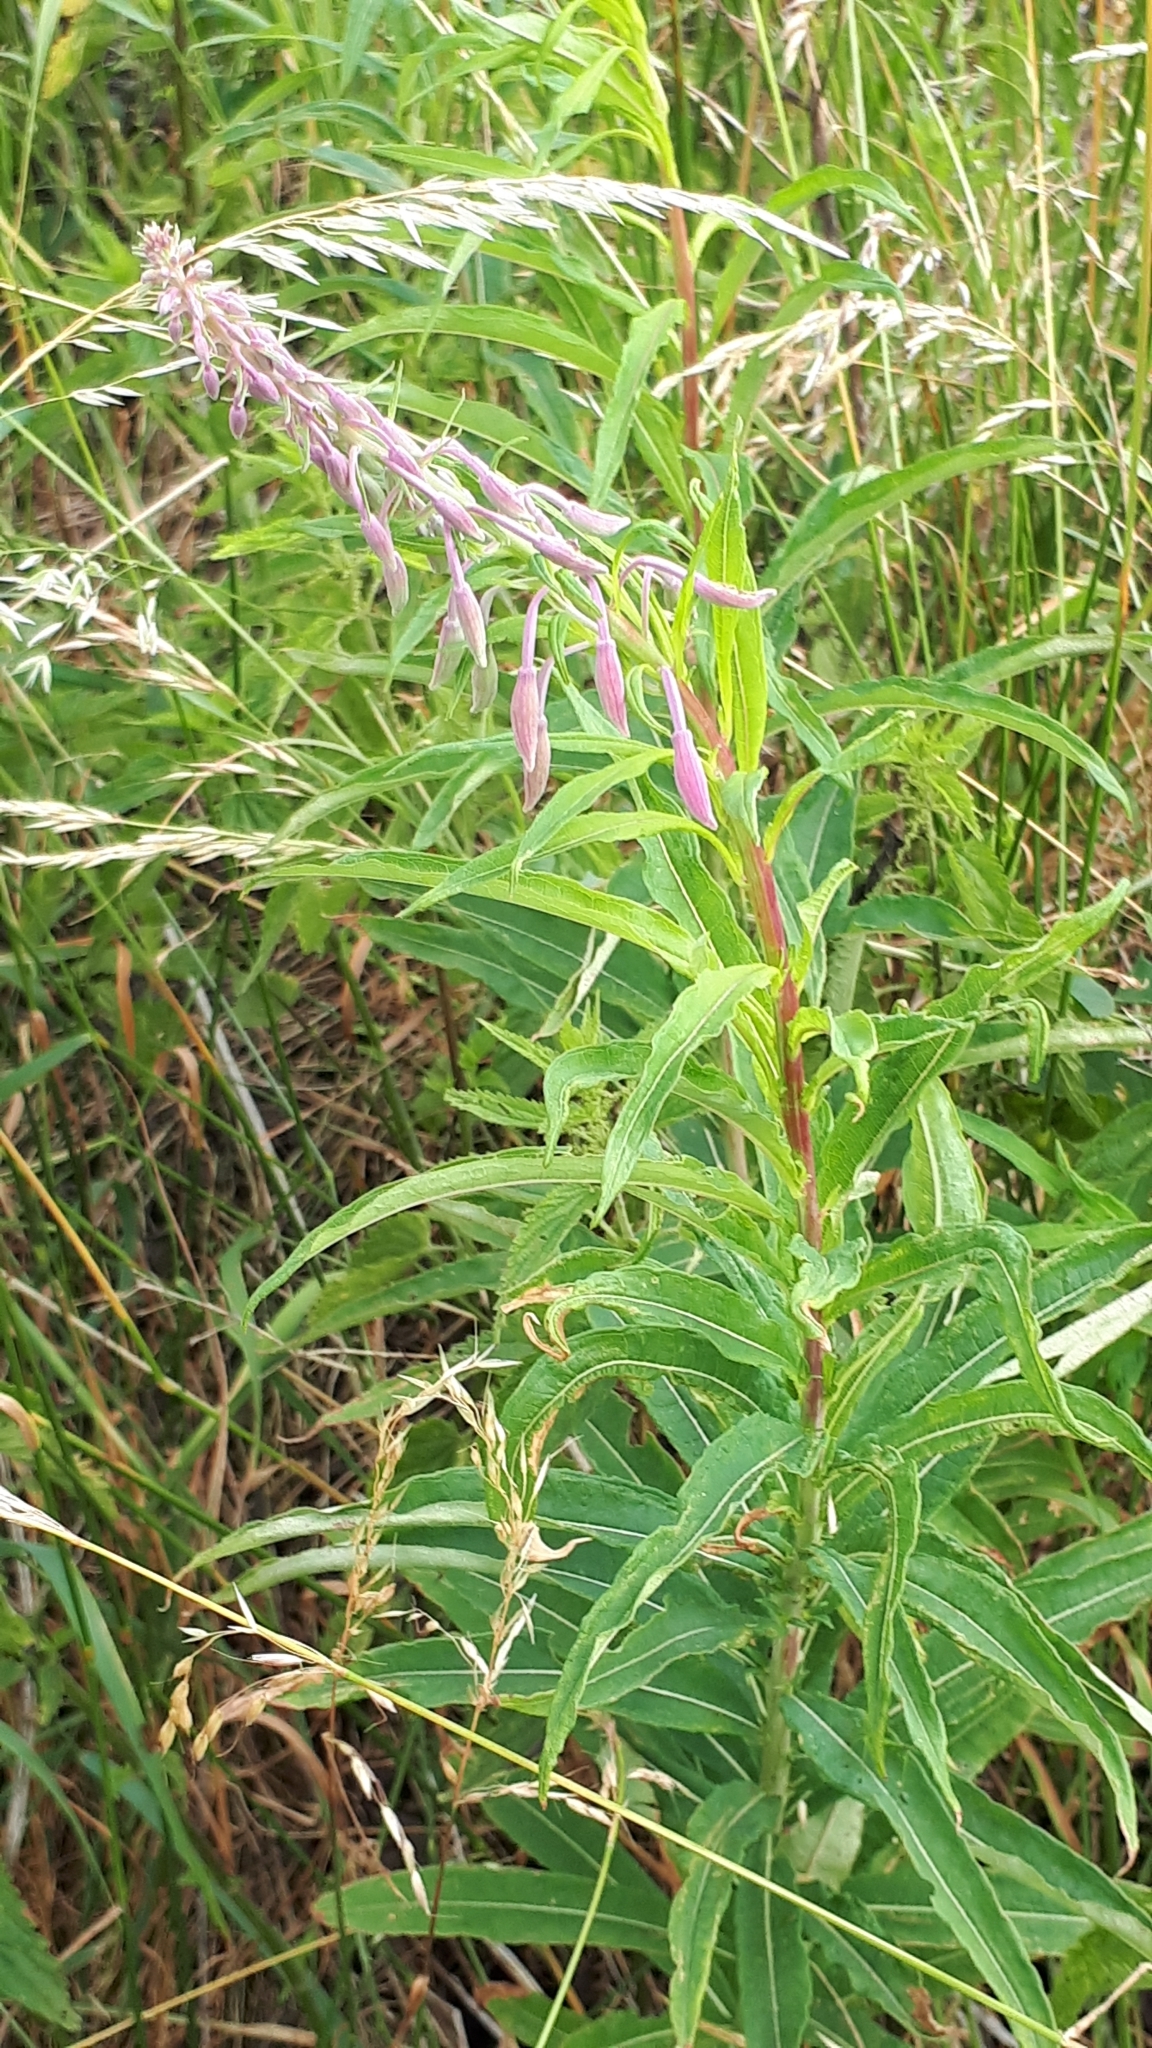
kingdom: Plantae
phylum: Tracheophyta
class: Magnoliopsida
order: Myrtales
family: Onagraceae
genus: Chamaenerion
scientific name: Chamaenerion angustifolium
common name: Fireweed
